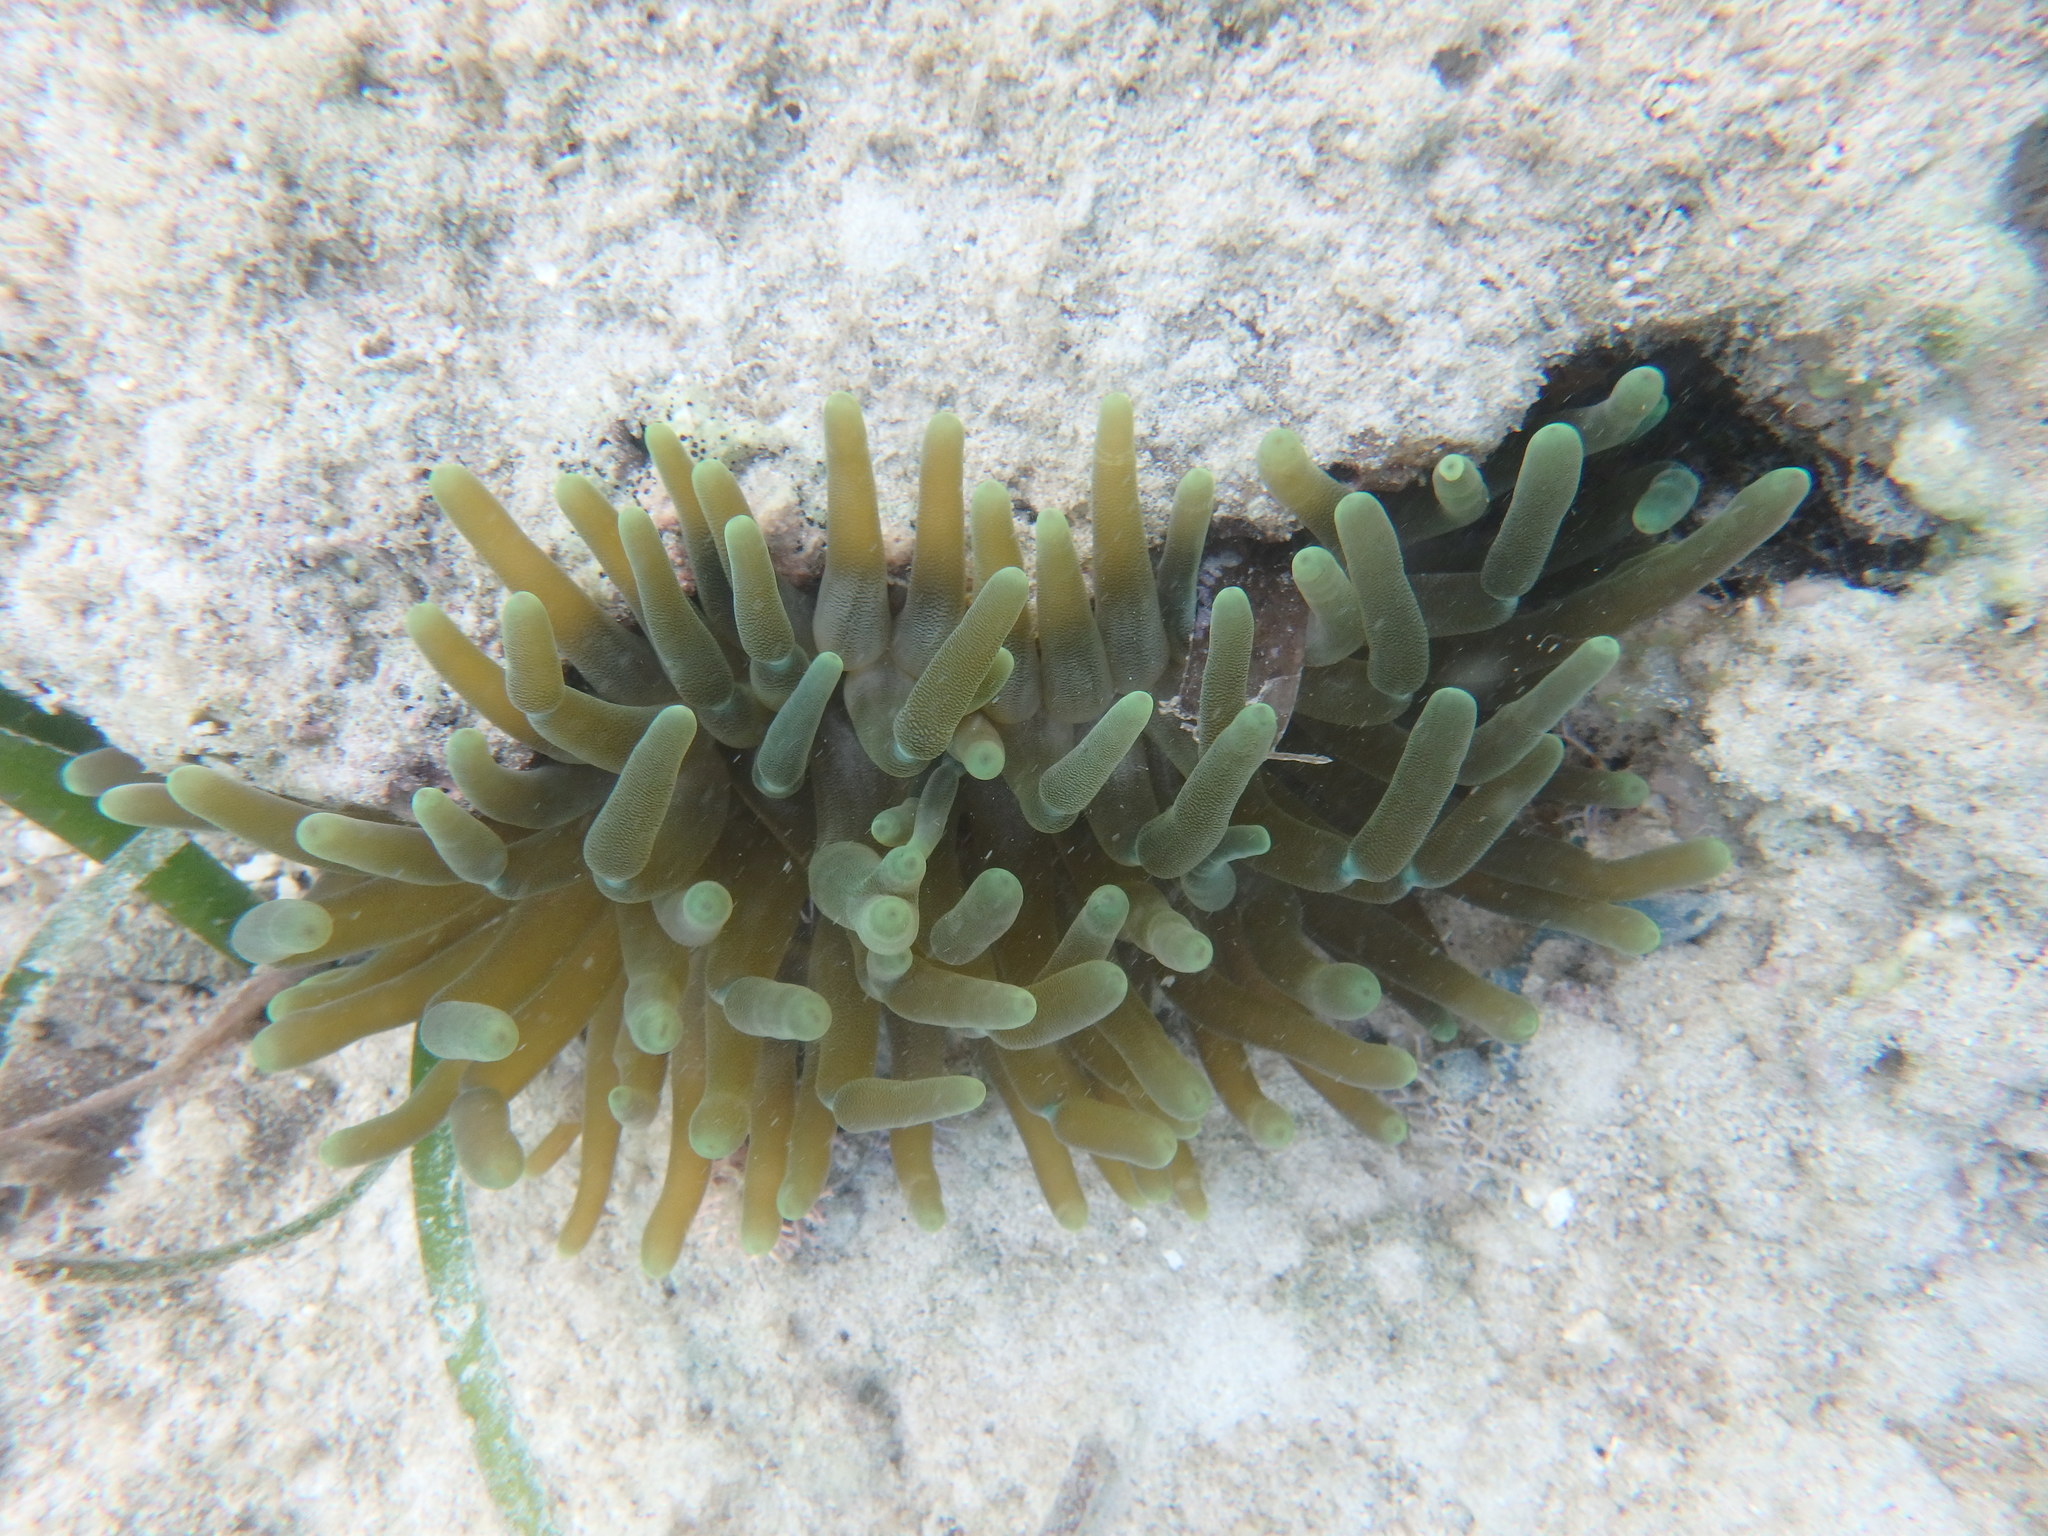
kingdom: Animalia
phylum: Cnidaria
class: Anthozoa
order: Actiniaria
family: Actiniidae
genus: Condylactis
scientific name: Condylactis gigantea
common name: Giant caribbean anemone
